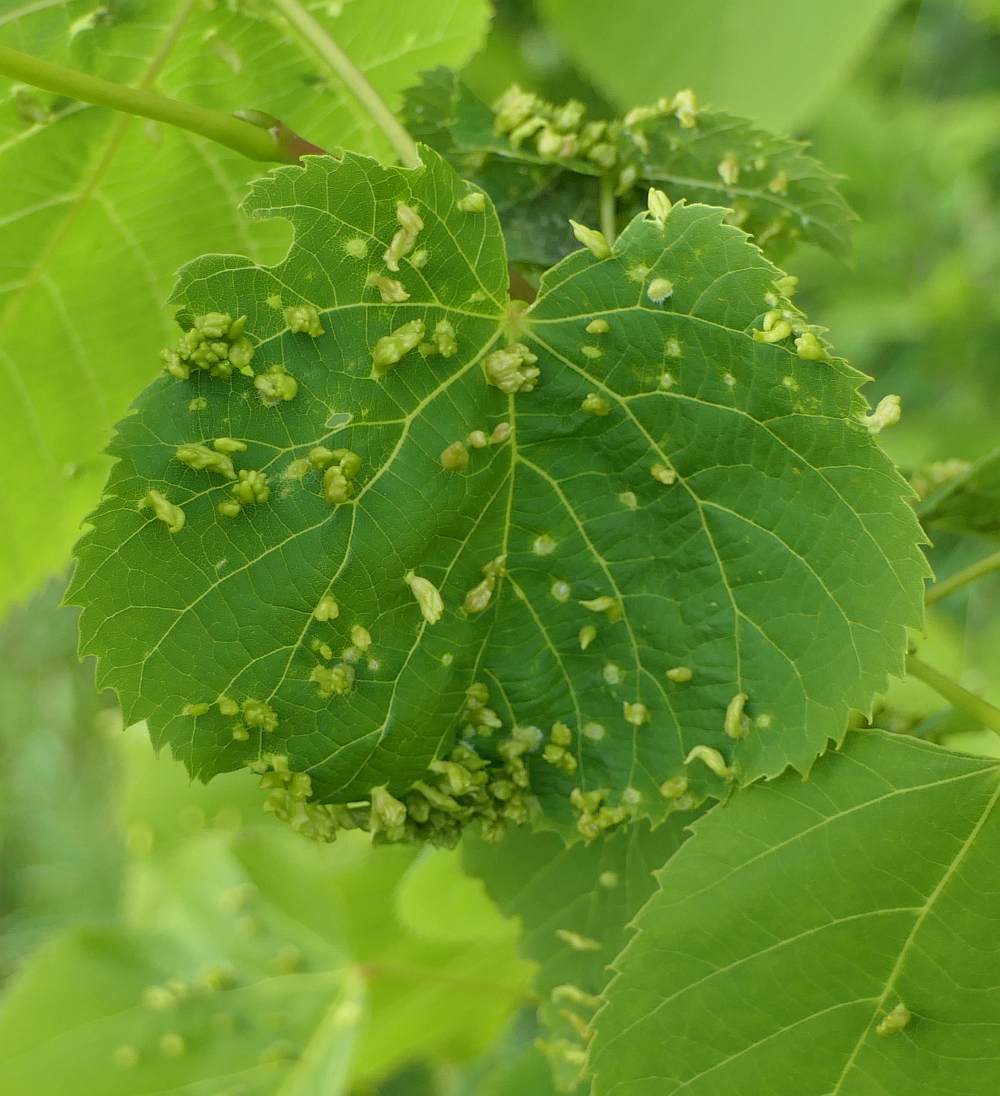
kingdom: Animalia
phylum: Arthropoda
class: Arachnida
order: Trombidiformes
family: Eriophyidae
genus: Eriophyes
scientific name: Eriophyes tiliae
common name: Red nail gall mite
